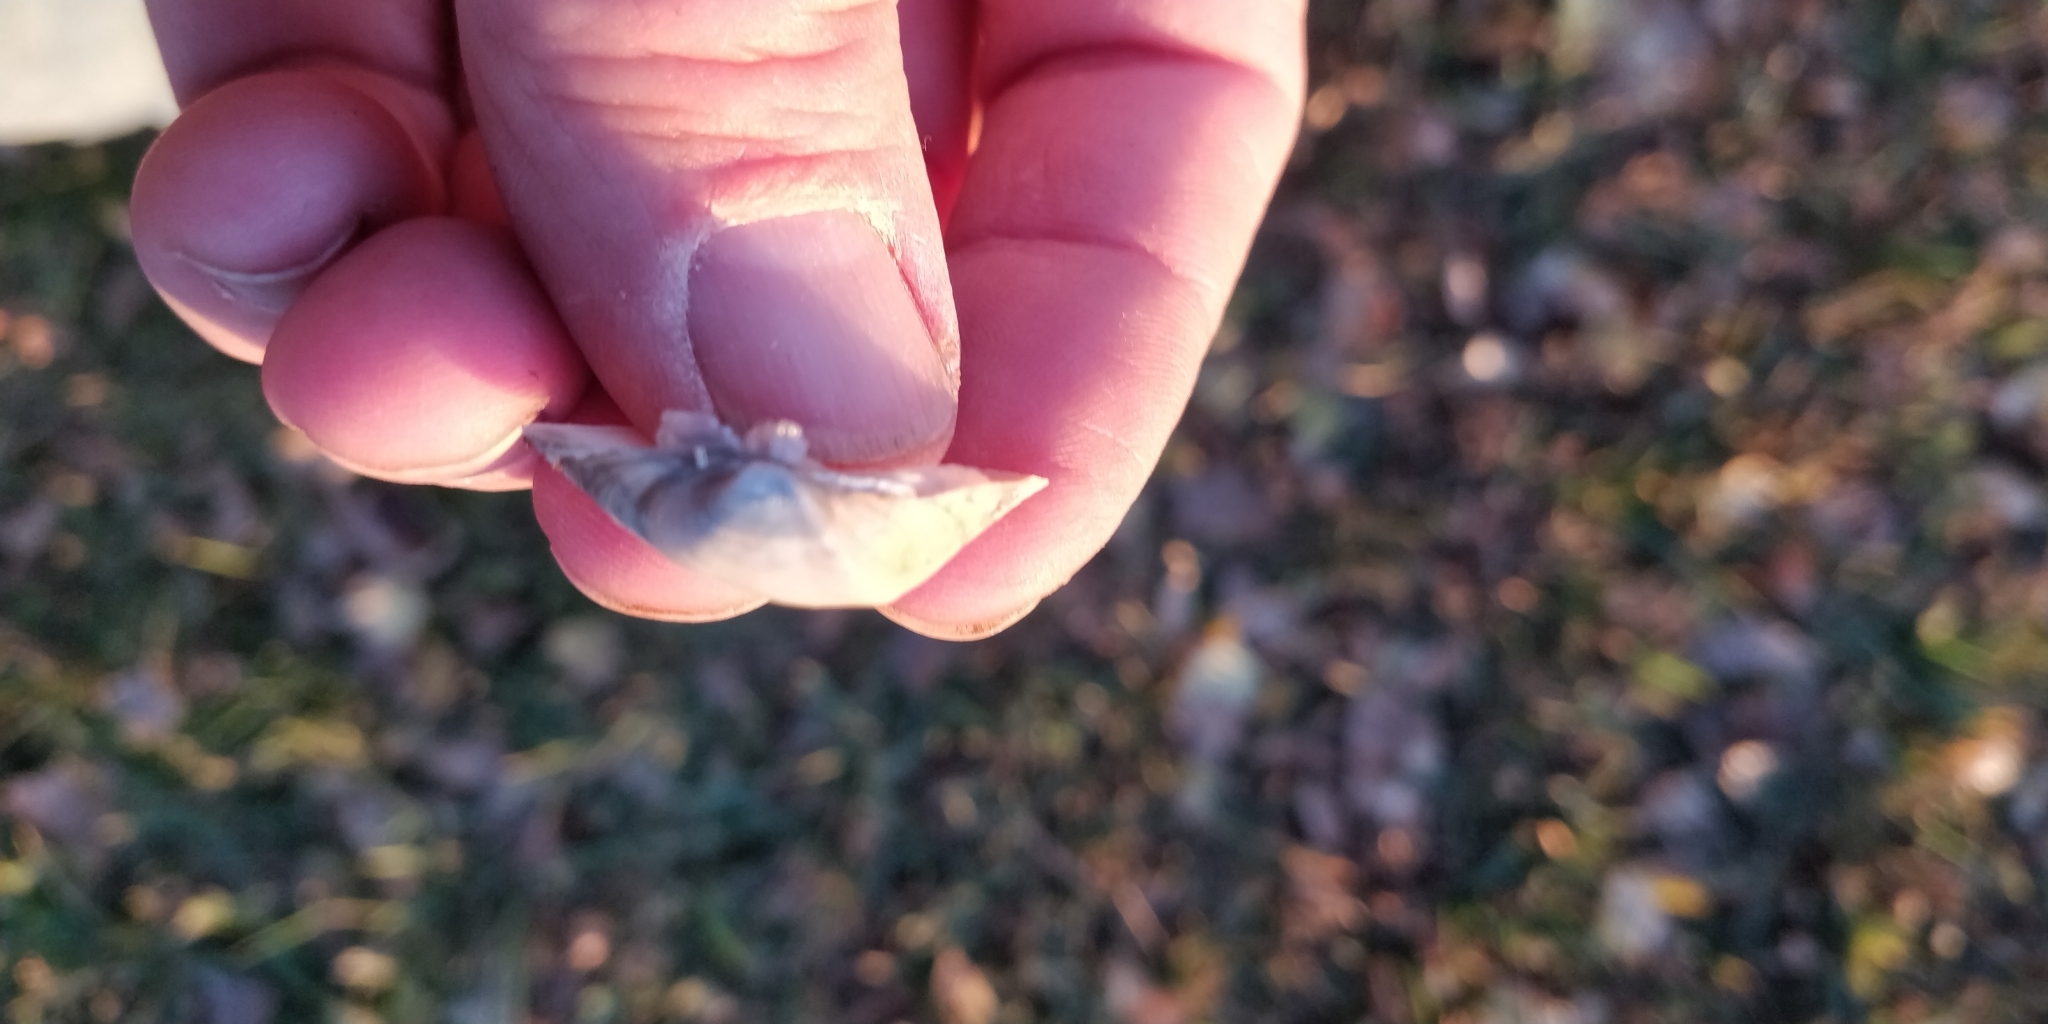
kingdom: Animalia
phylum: Mollusca
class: Bivalvia
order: Unionida
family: Unionidae
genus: Truncilla
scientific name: Truncilla truncata
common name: Deertoe
